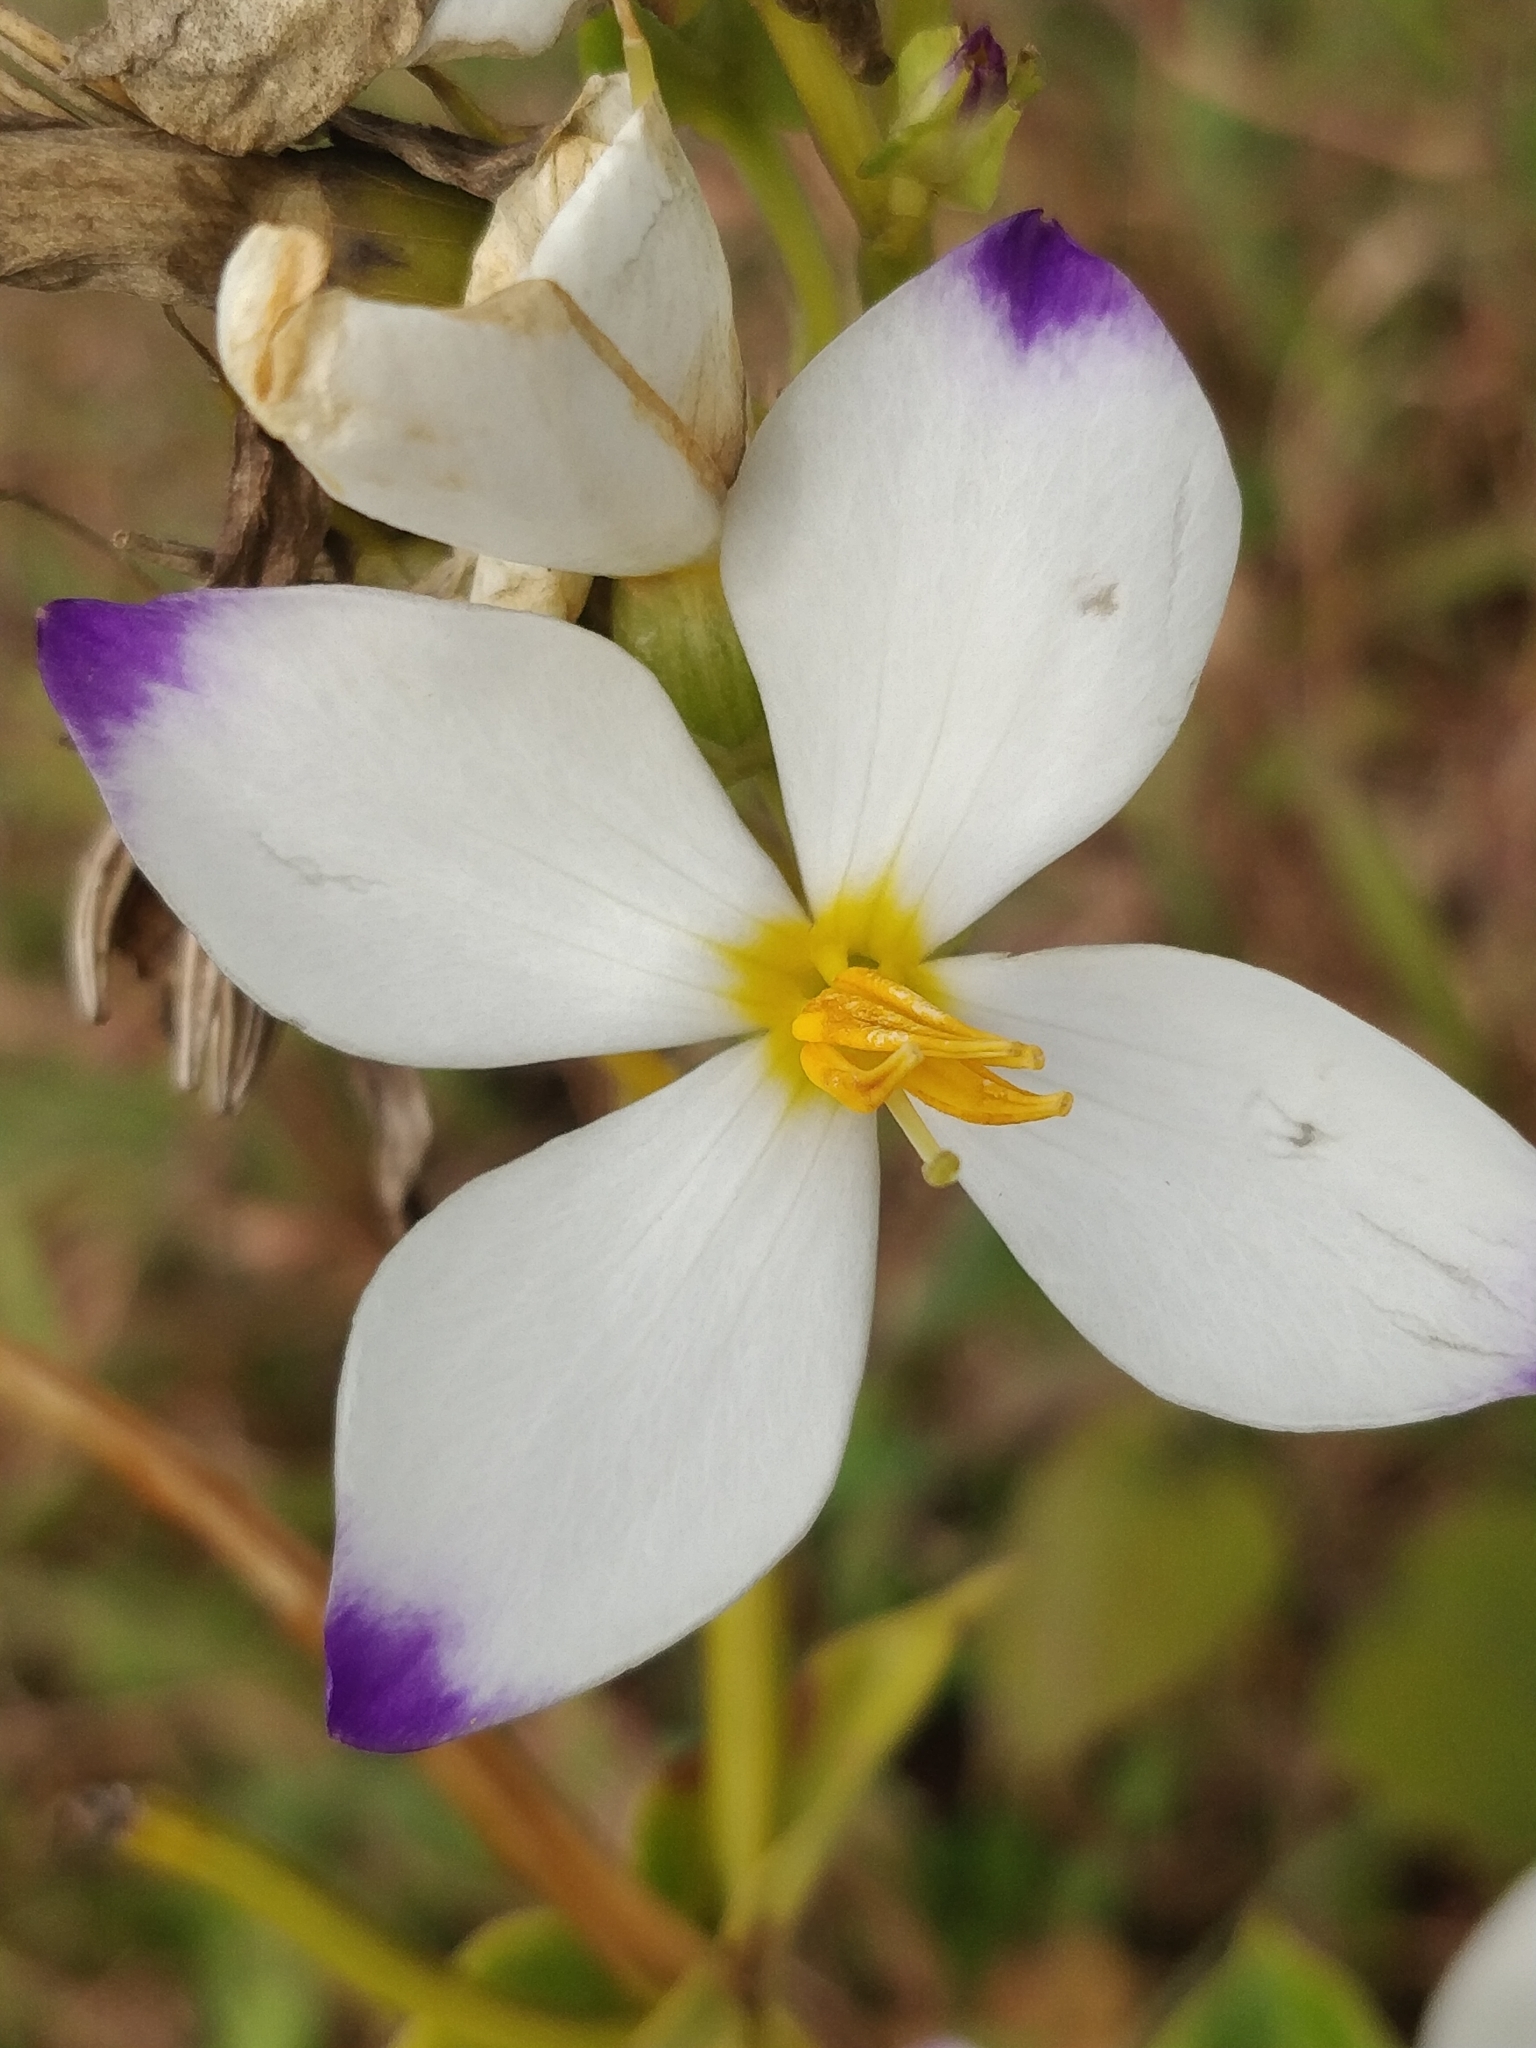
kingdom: Plantae
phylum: Tracheophyta
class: Magnoliopsida
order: Gentianales
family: Gentianaceae
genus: Exacum
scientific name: Exacum tetragonum
